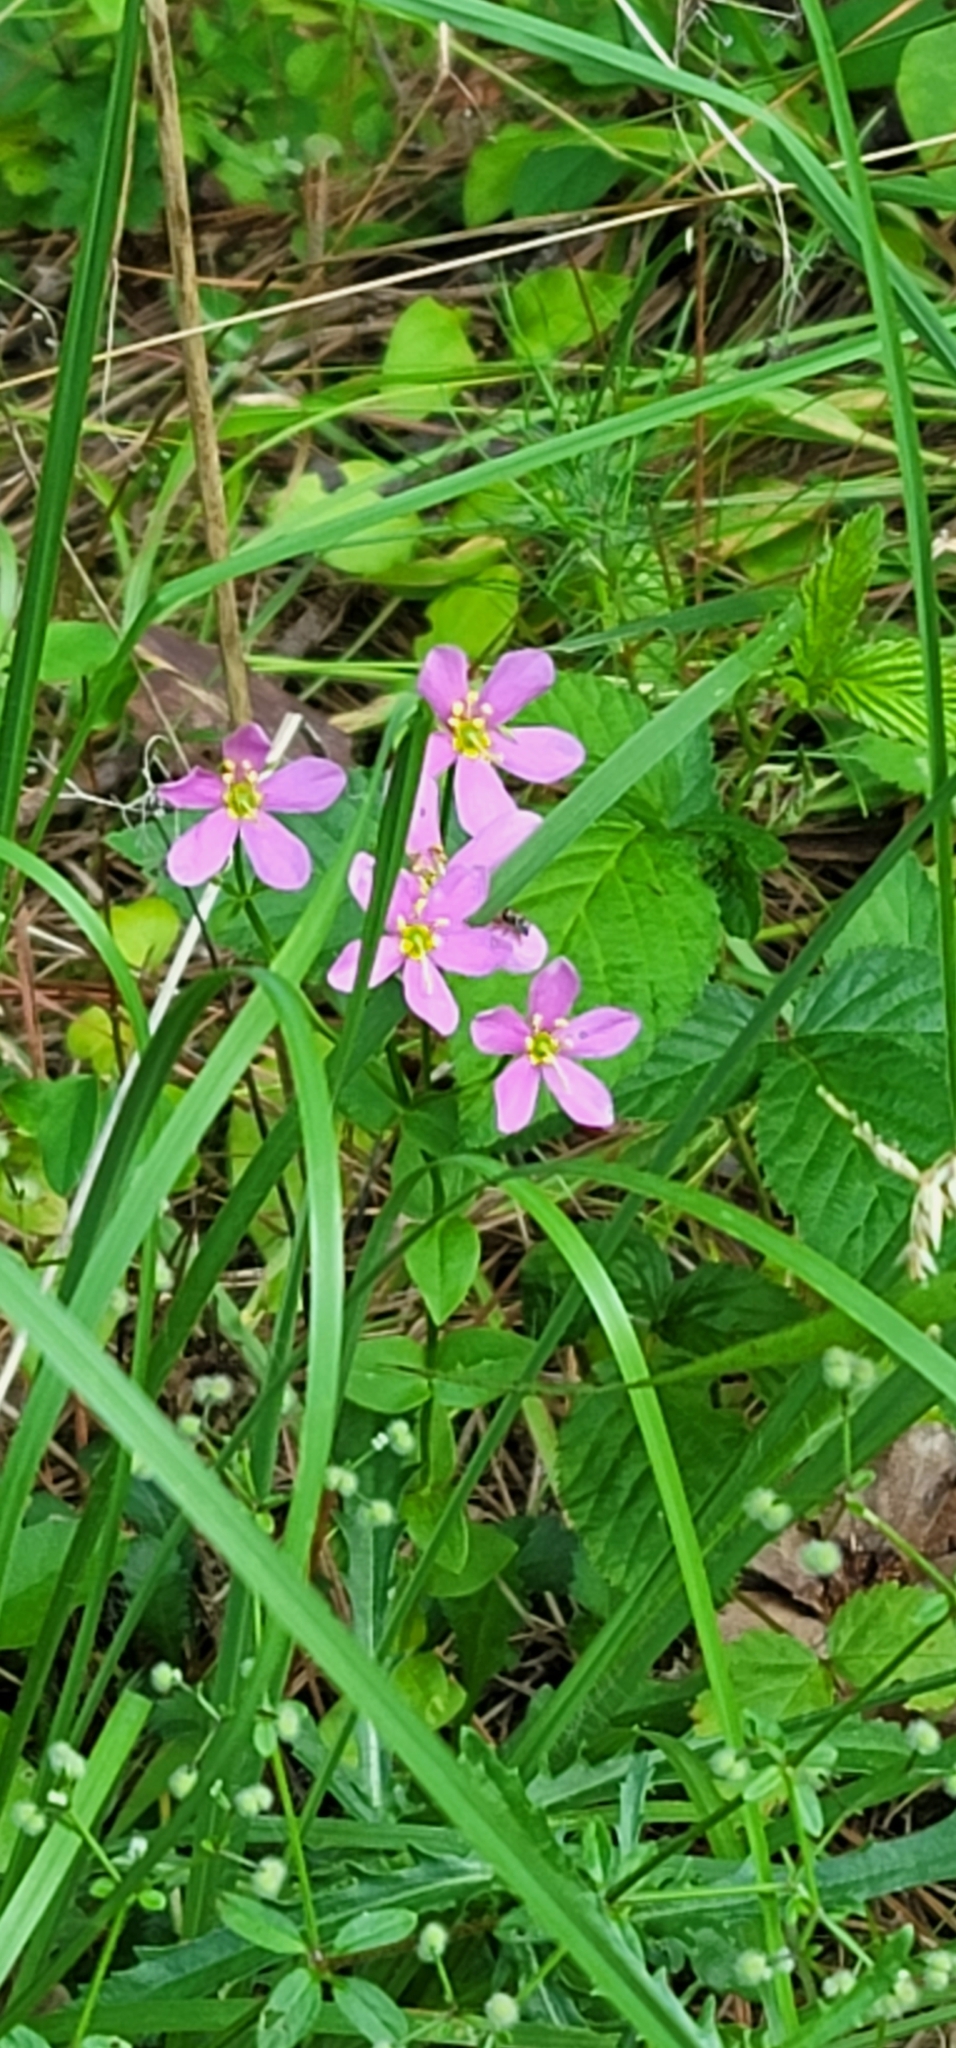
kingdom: Plantae
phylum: Tracheophyta
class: Magnoliopsida
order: Gentianales
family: Gentianaceae
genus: Sabatia
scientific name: Sabatia angularis
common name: Rose-pink
